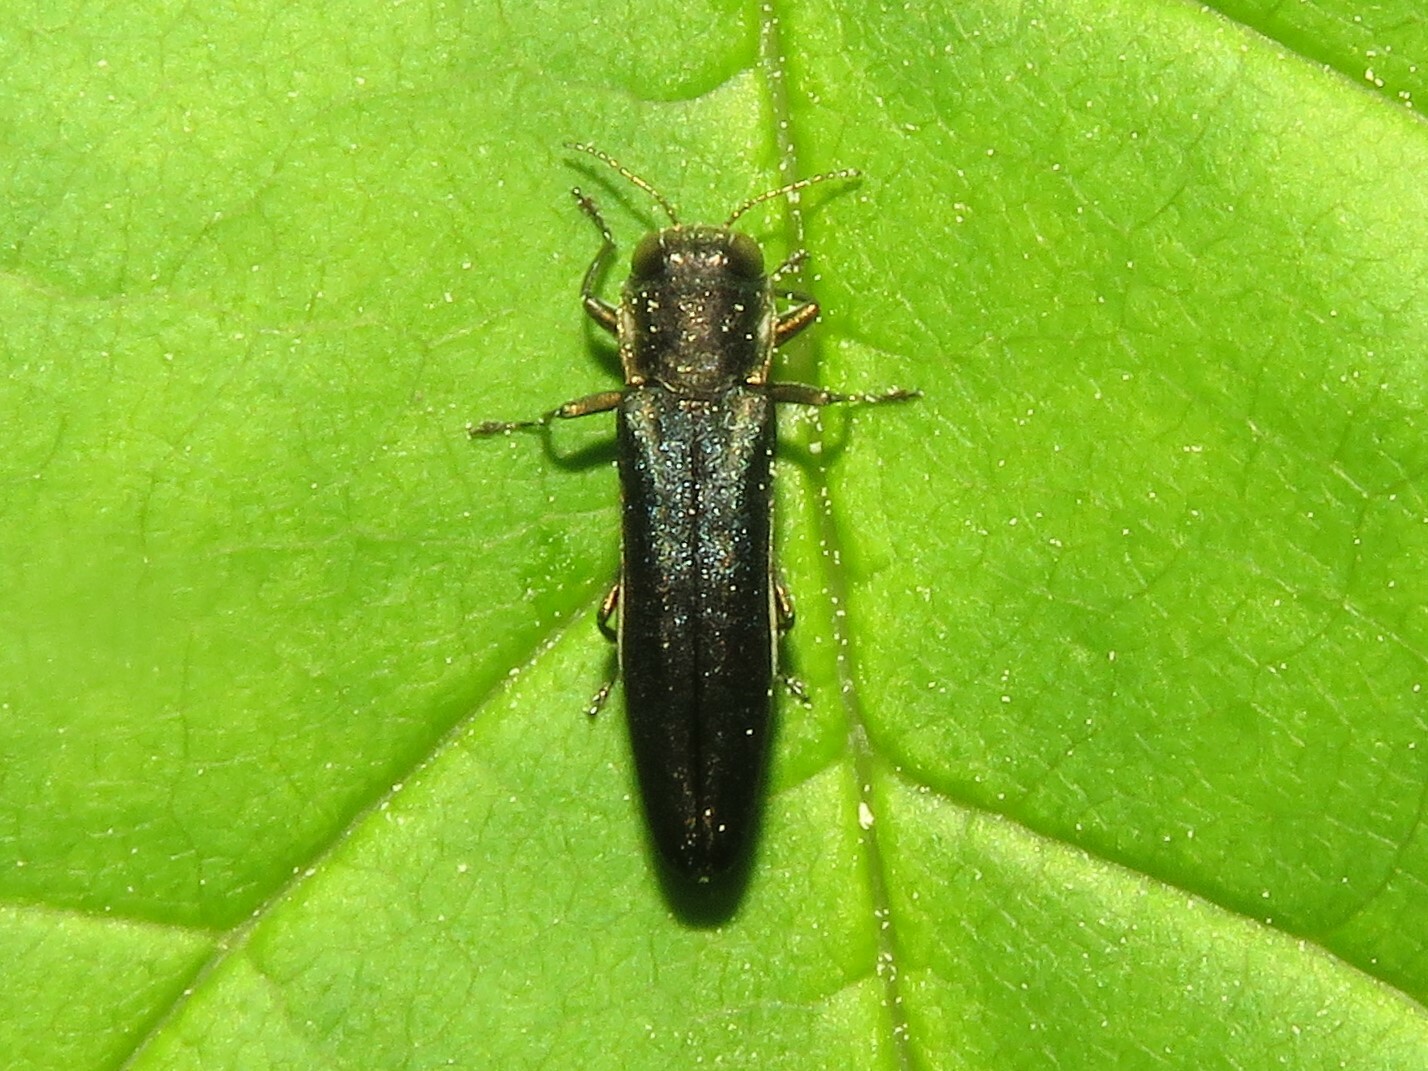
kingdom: Animalia
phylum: Arthropoda
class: Insecta
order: Coleoptera
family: Buprestidae
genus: Agrilus
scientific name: Agrilus carpini
